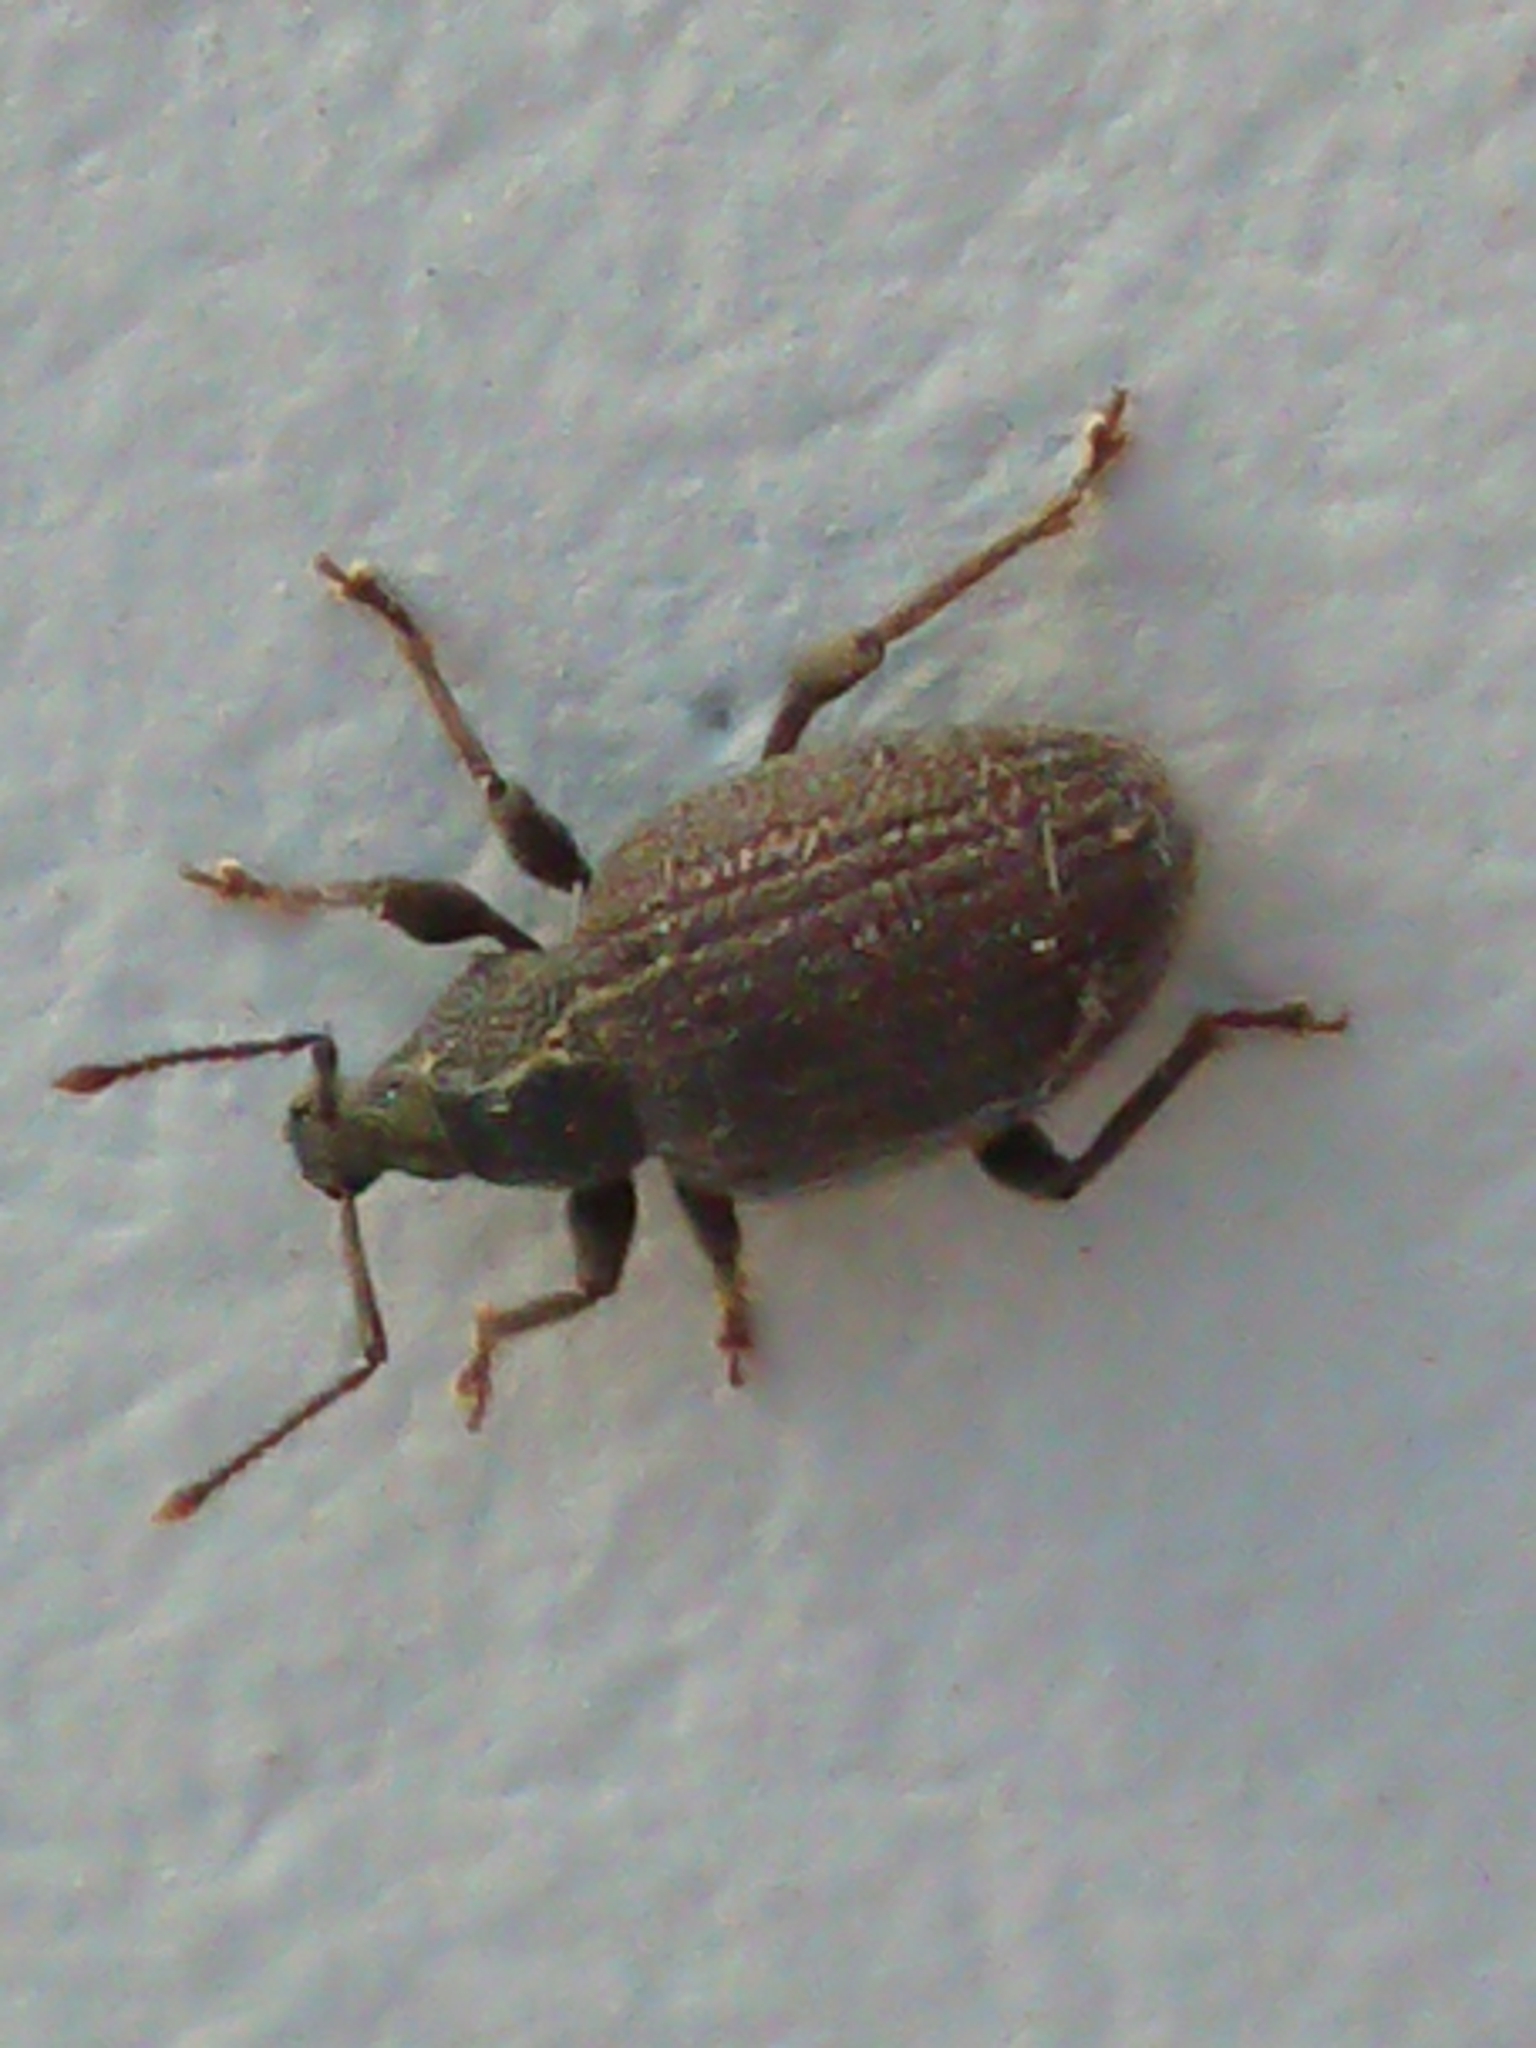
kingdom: Animalia
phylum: Arthropoda
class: Insecta
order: Coleoptera
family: Curculionidae
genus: Otiorhynchus
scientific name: Otiorhynchus rugosostriatus
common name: Weevil
